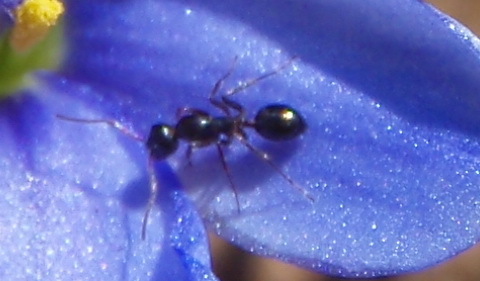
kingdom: Animalia
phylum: Arthropoda
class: Insecta
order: Hymenoptera
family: Formicidae
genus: Lepisiota
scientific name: Lepisiota imperfecta
